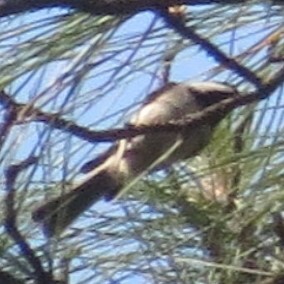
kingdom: Animalia
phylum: Chordata
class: Aves
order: Passeriformes
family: Paridae
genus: Poecile
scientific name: Poecile carolinensis
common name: Carolina chickadee
